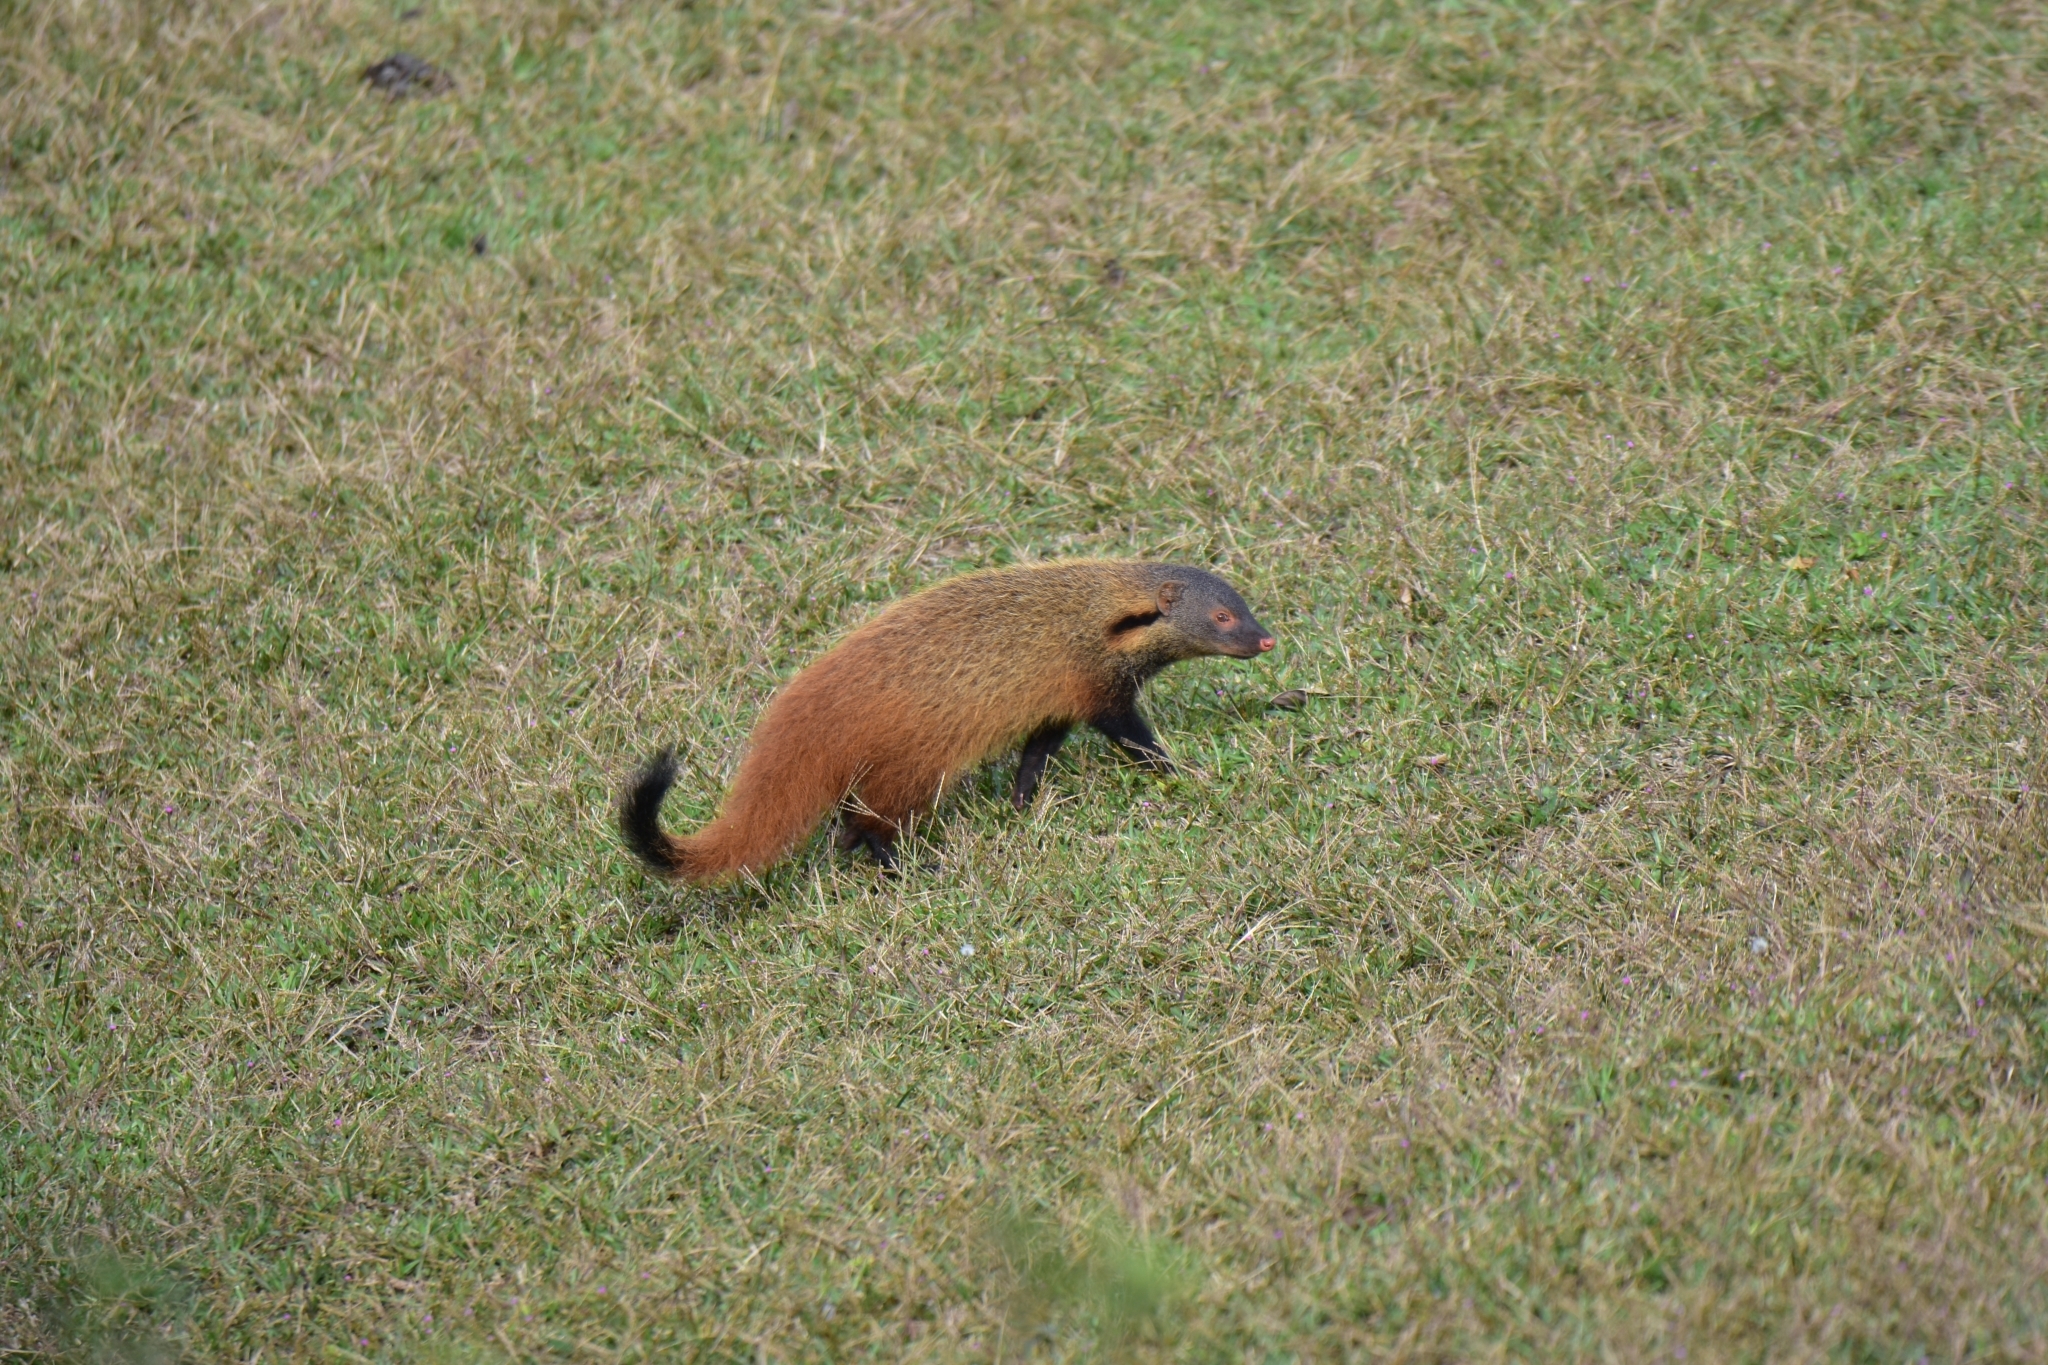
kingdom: Animalia
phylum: Chordata
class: Mammalia
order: Carnivora
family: Herpestidae
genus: Herpestes
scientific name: Herpestes vitticollis
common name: Stripe-necked mongoose
